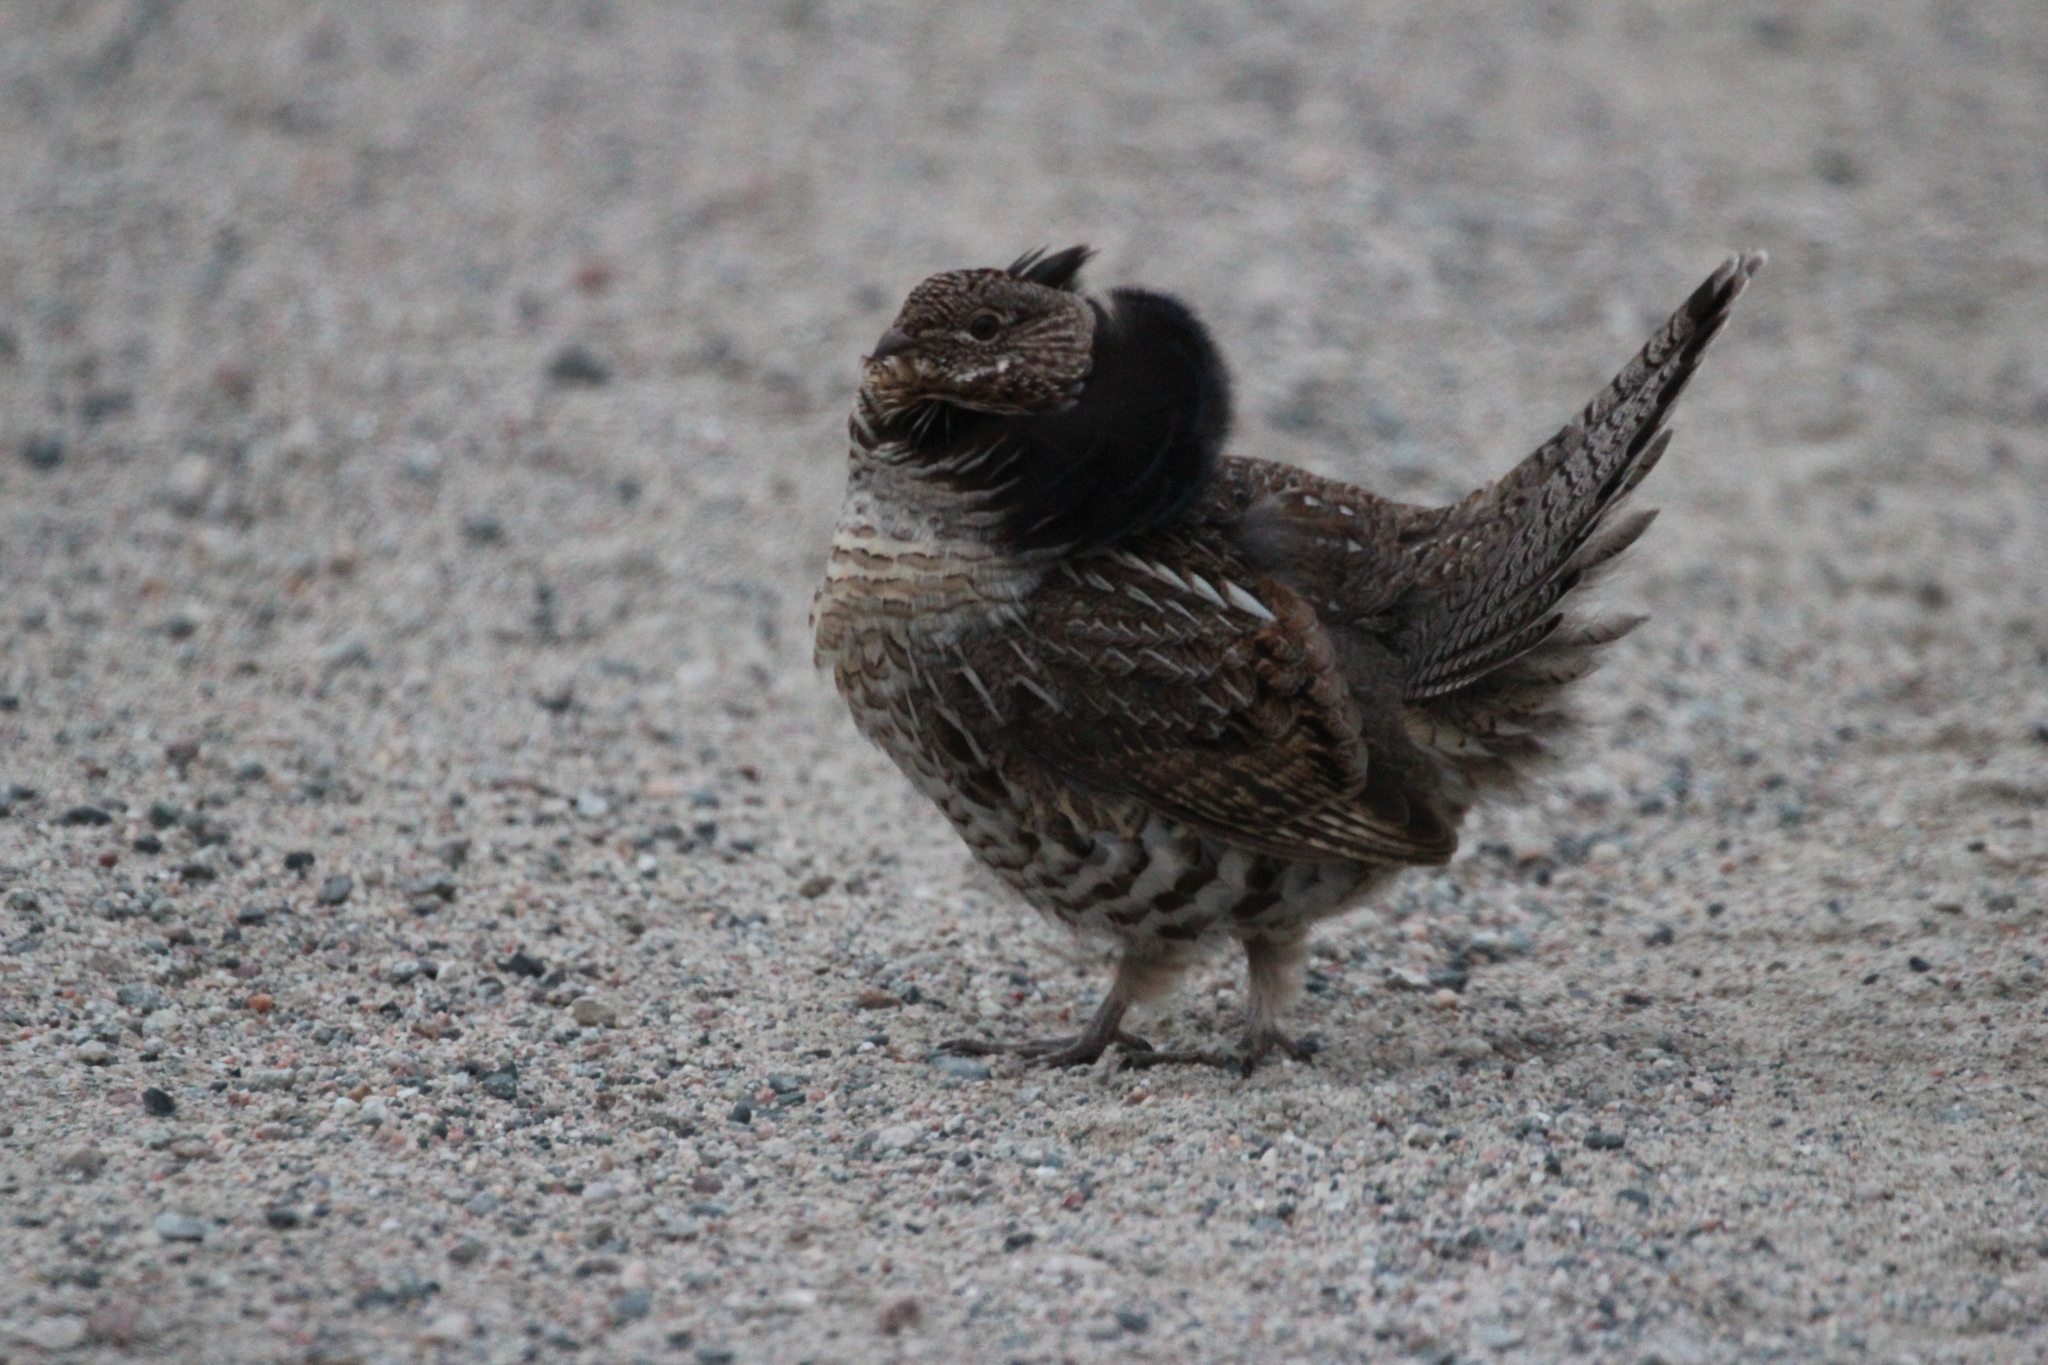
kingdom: Animalia
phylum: Chordata
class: Aves
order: Galliformes
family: Phasianidae
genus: Bonasa
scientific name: Bonasa umbellus
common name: Ruffed grouse
